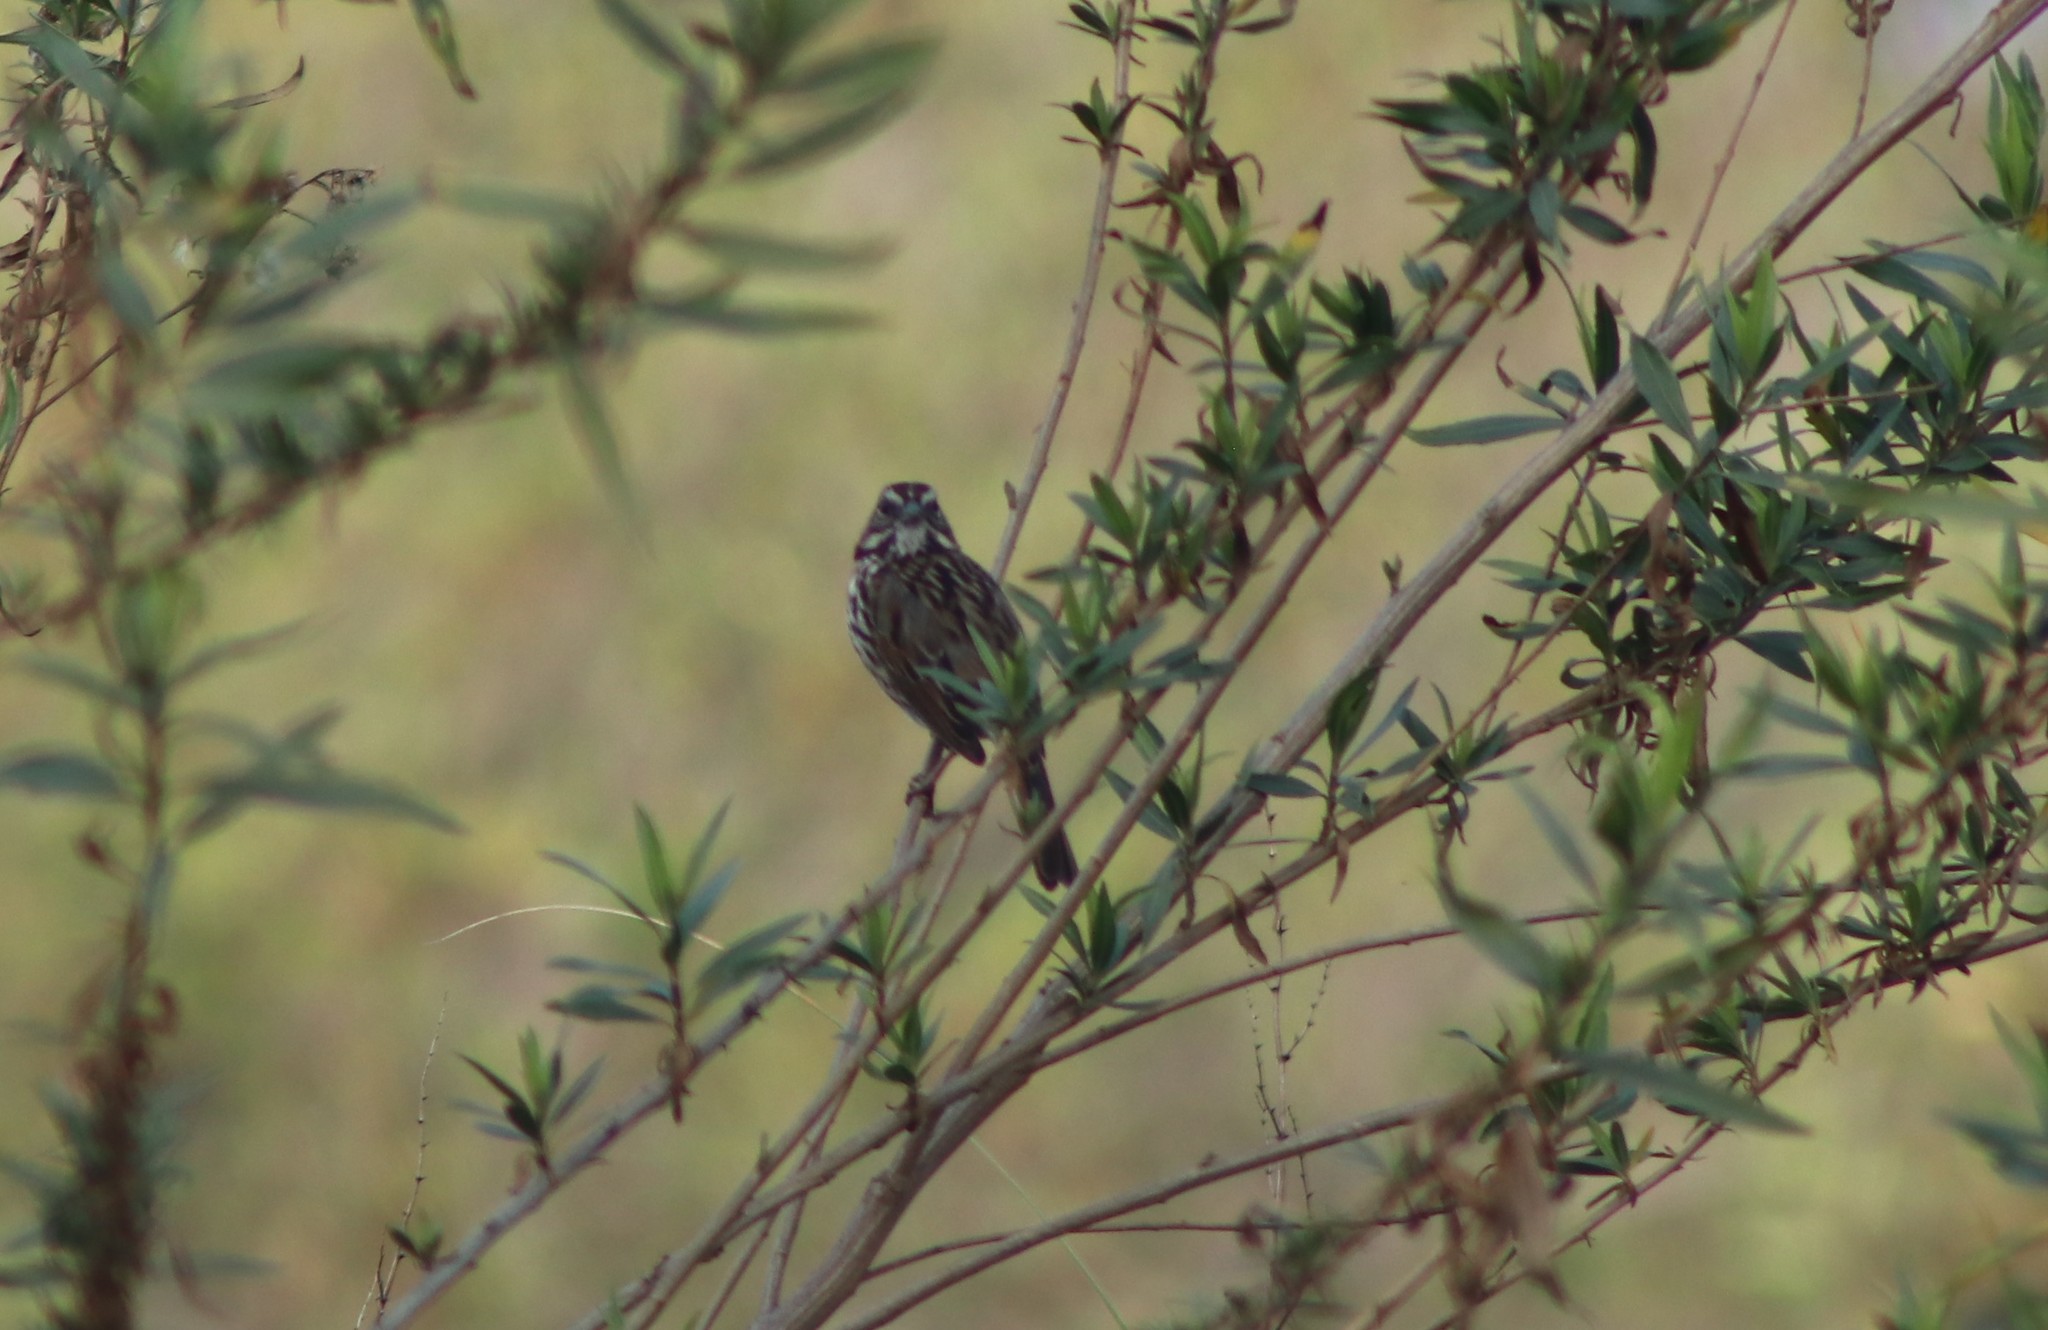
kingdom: Animalia
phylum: Chordata
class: Aves
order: Passeriformes
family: Passerellidae
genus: Melospiza
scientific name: Melospiza melodia
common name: Song sparrow
